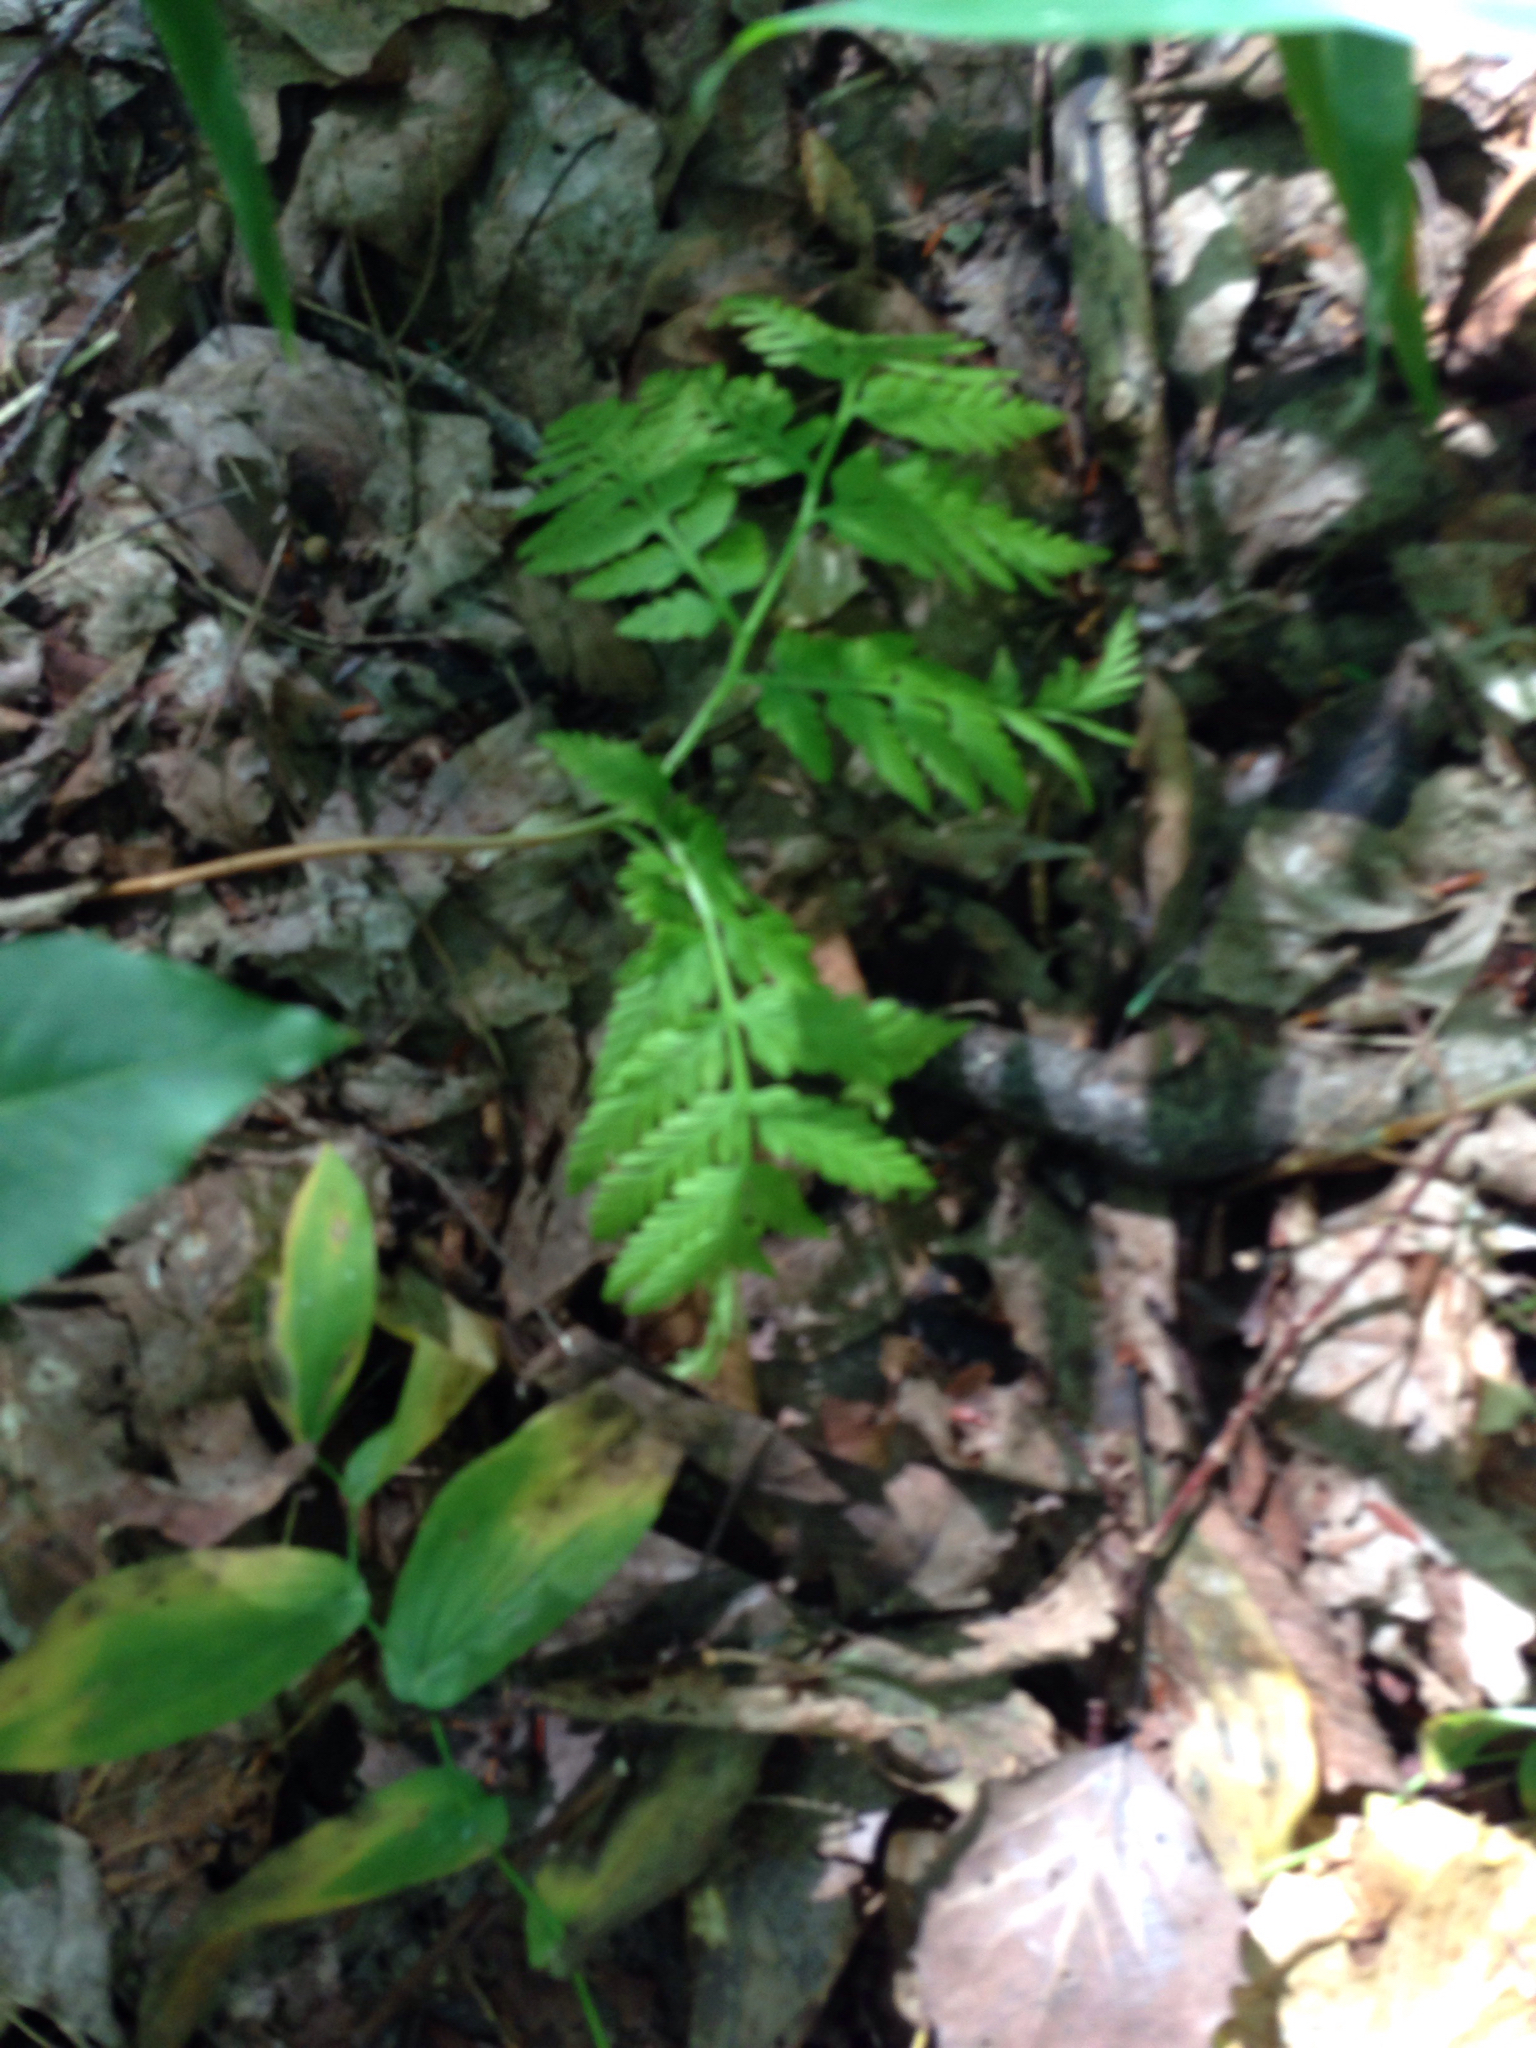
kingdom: Plantae
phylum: Tracheophyta
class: Polypodiopsida
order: Ophioglossales
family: Ophioglossaceae
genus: Botrypus
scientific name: Botrypus virginianus
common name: Common grapefern
